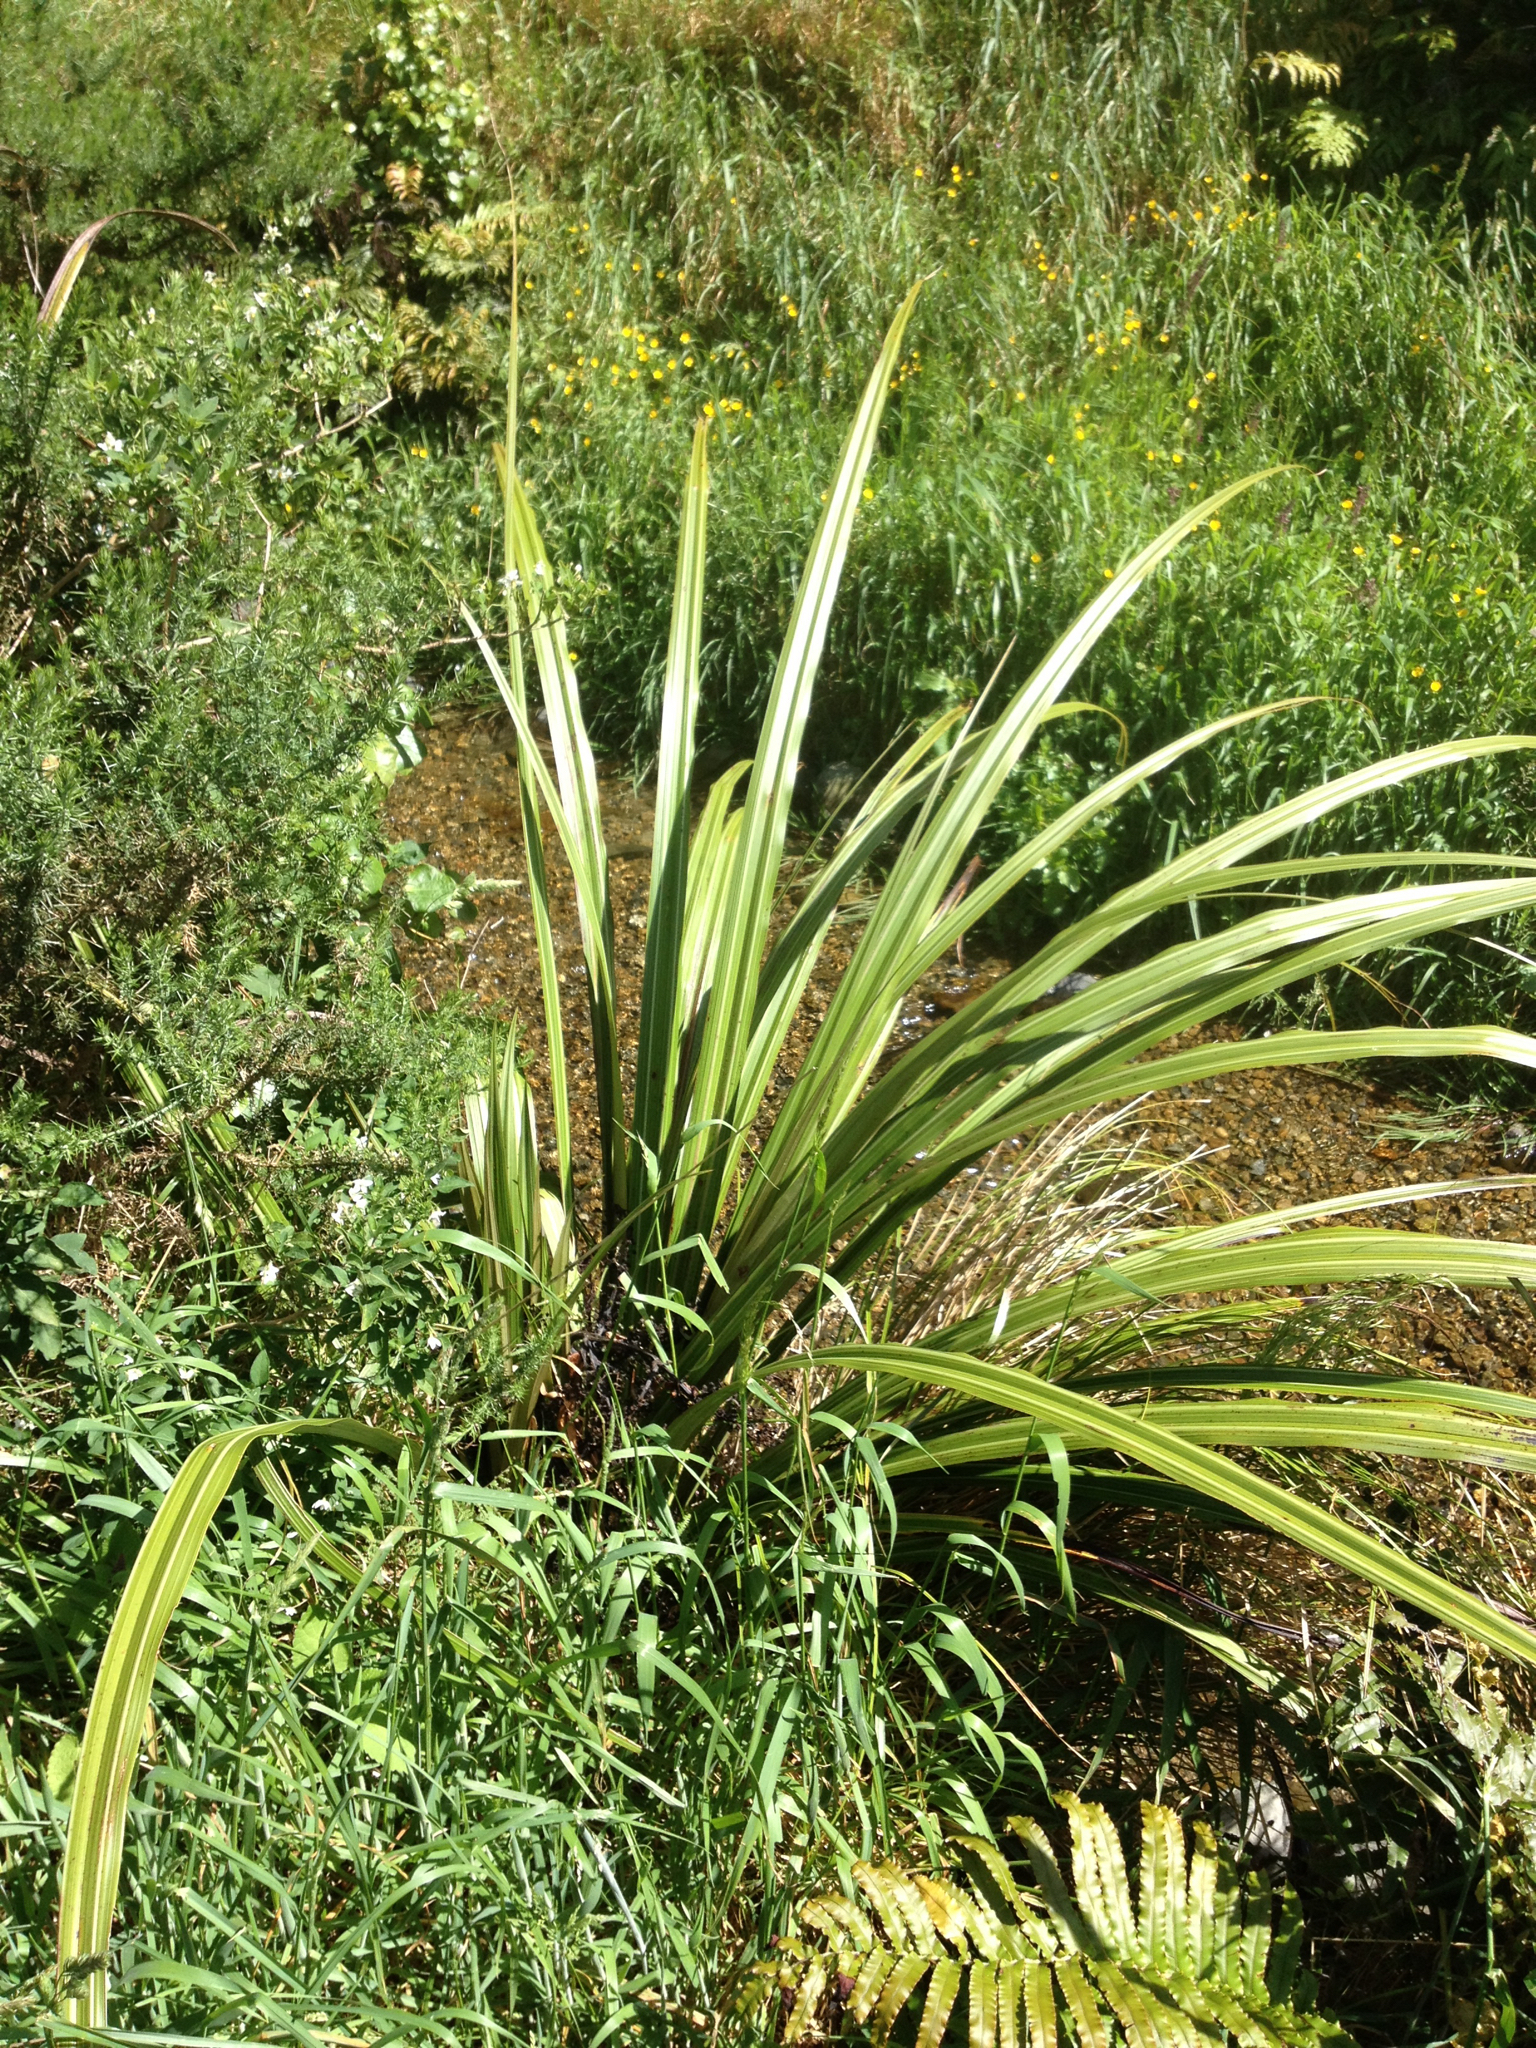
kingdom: Plantae
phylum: Tracheophyta
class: Liliopsida
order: Asparagales
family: Asteliaceae
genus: Astelia
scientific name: Astelia fragrans
